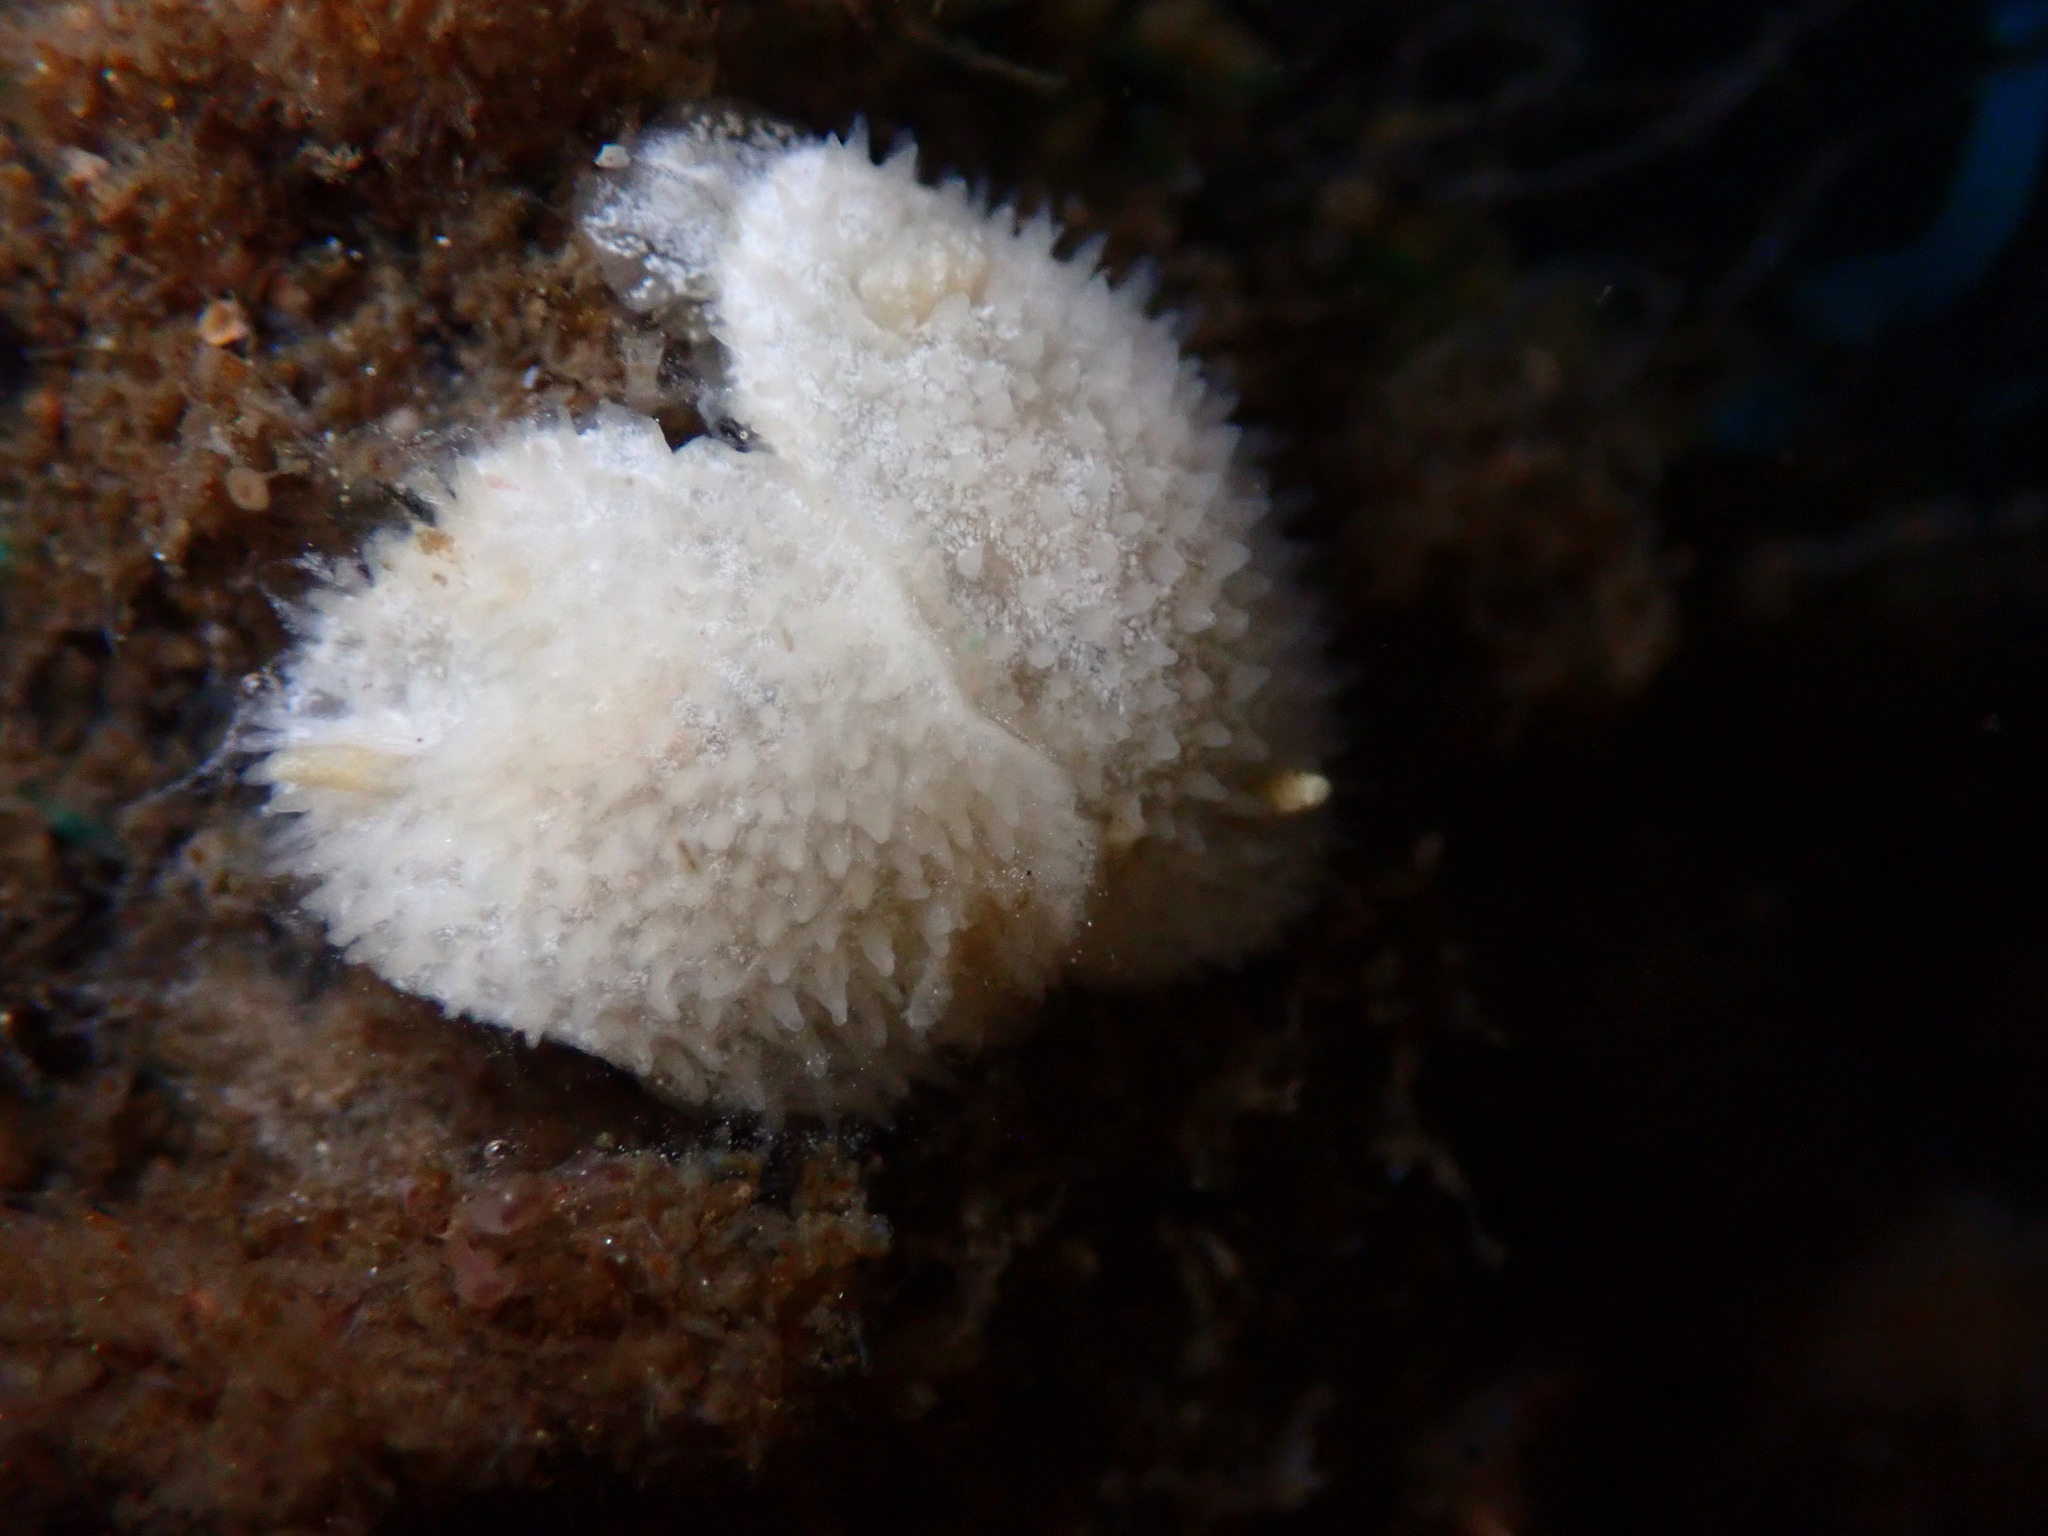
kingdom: Animalia
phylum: Mollusca
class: Gastropoda
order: Nudibranchia
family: Calycidorididae
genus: Diaphorodoris
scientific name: Diaphorodoris lirulatocauda
